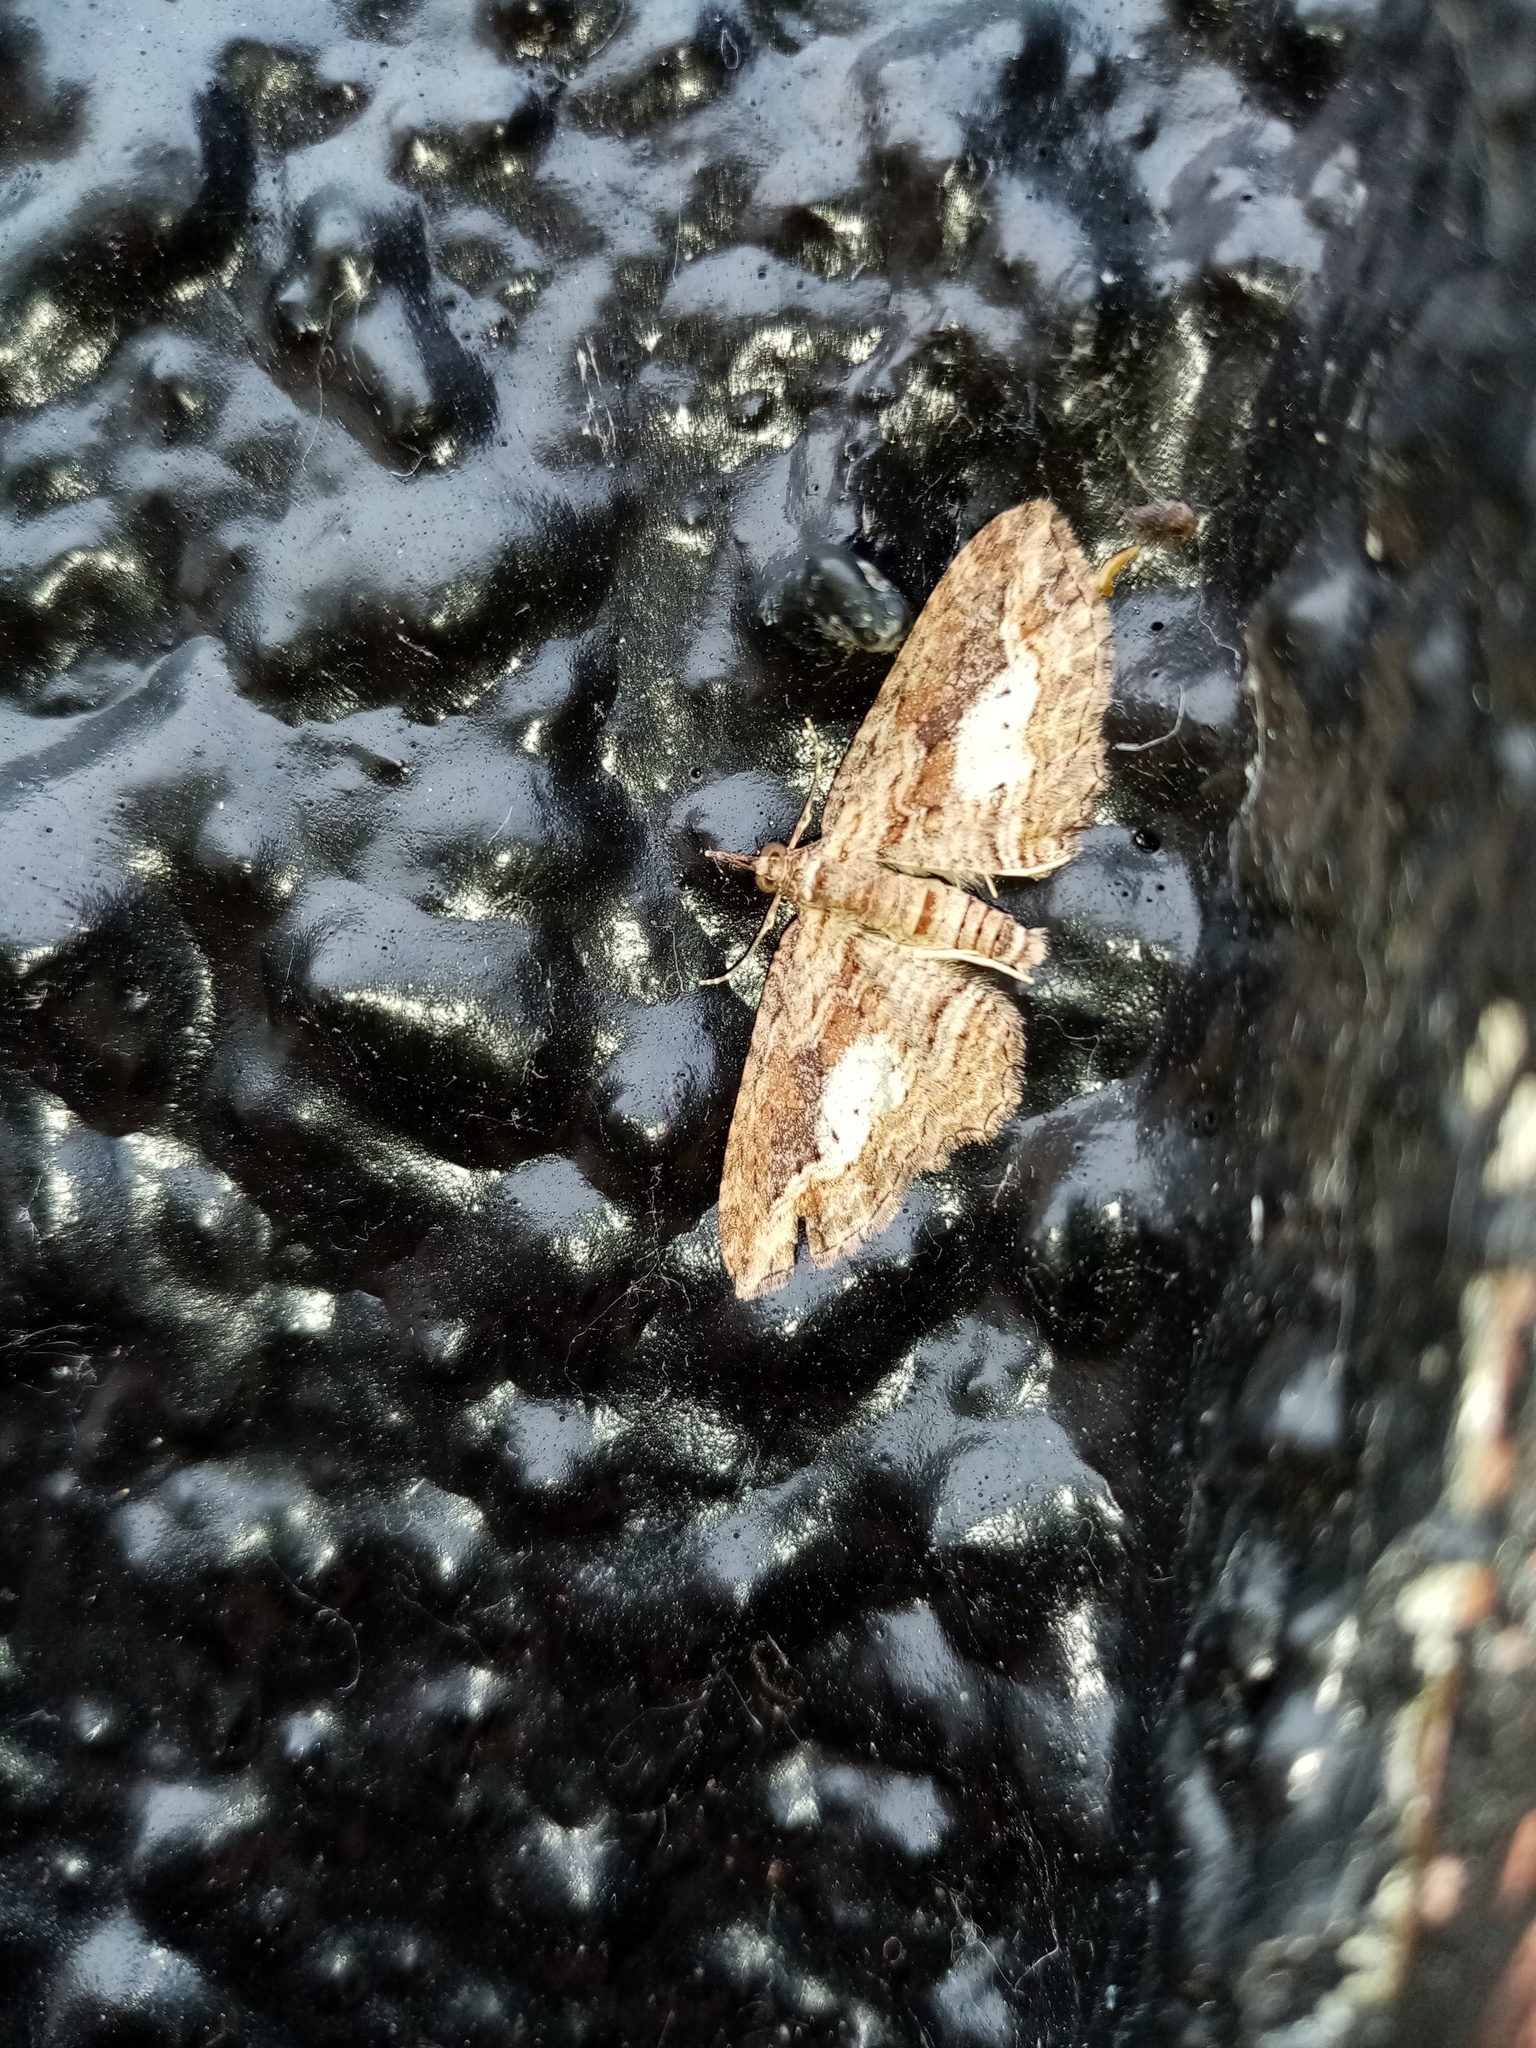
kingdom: Animalia
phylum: Arthropoda
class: Insecta
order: Lepidoptera
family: Geometridae
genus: Chloroclystis
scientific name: Chloroclystis filata
